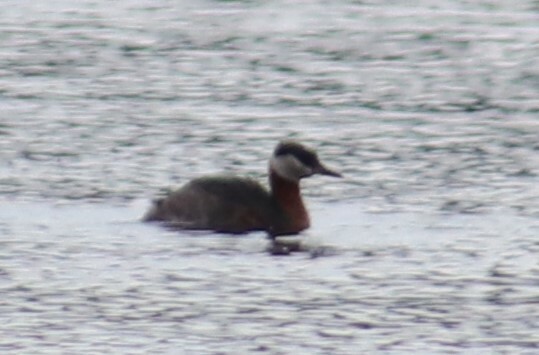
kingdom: Animalia
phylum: Chordata
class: Aves
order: Podicipediformes
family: Podicipedidae
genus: Podiceps
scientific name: Podiceps grisegena
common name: Red-necked grebe
